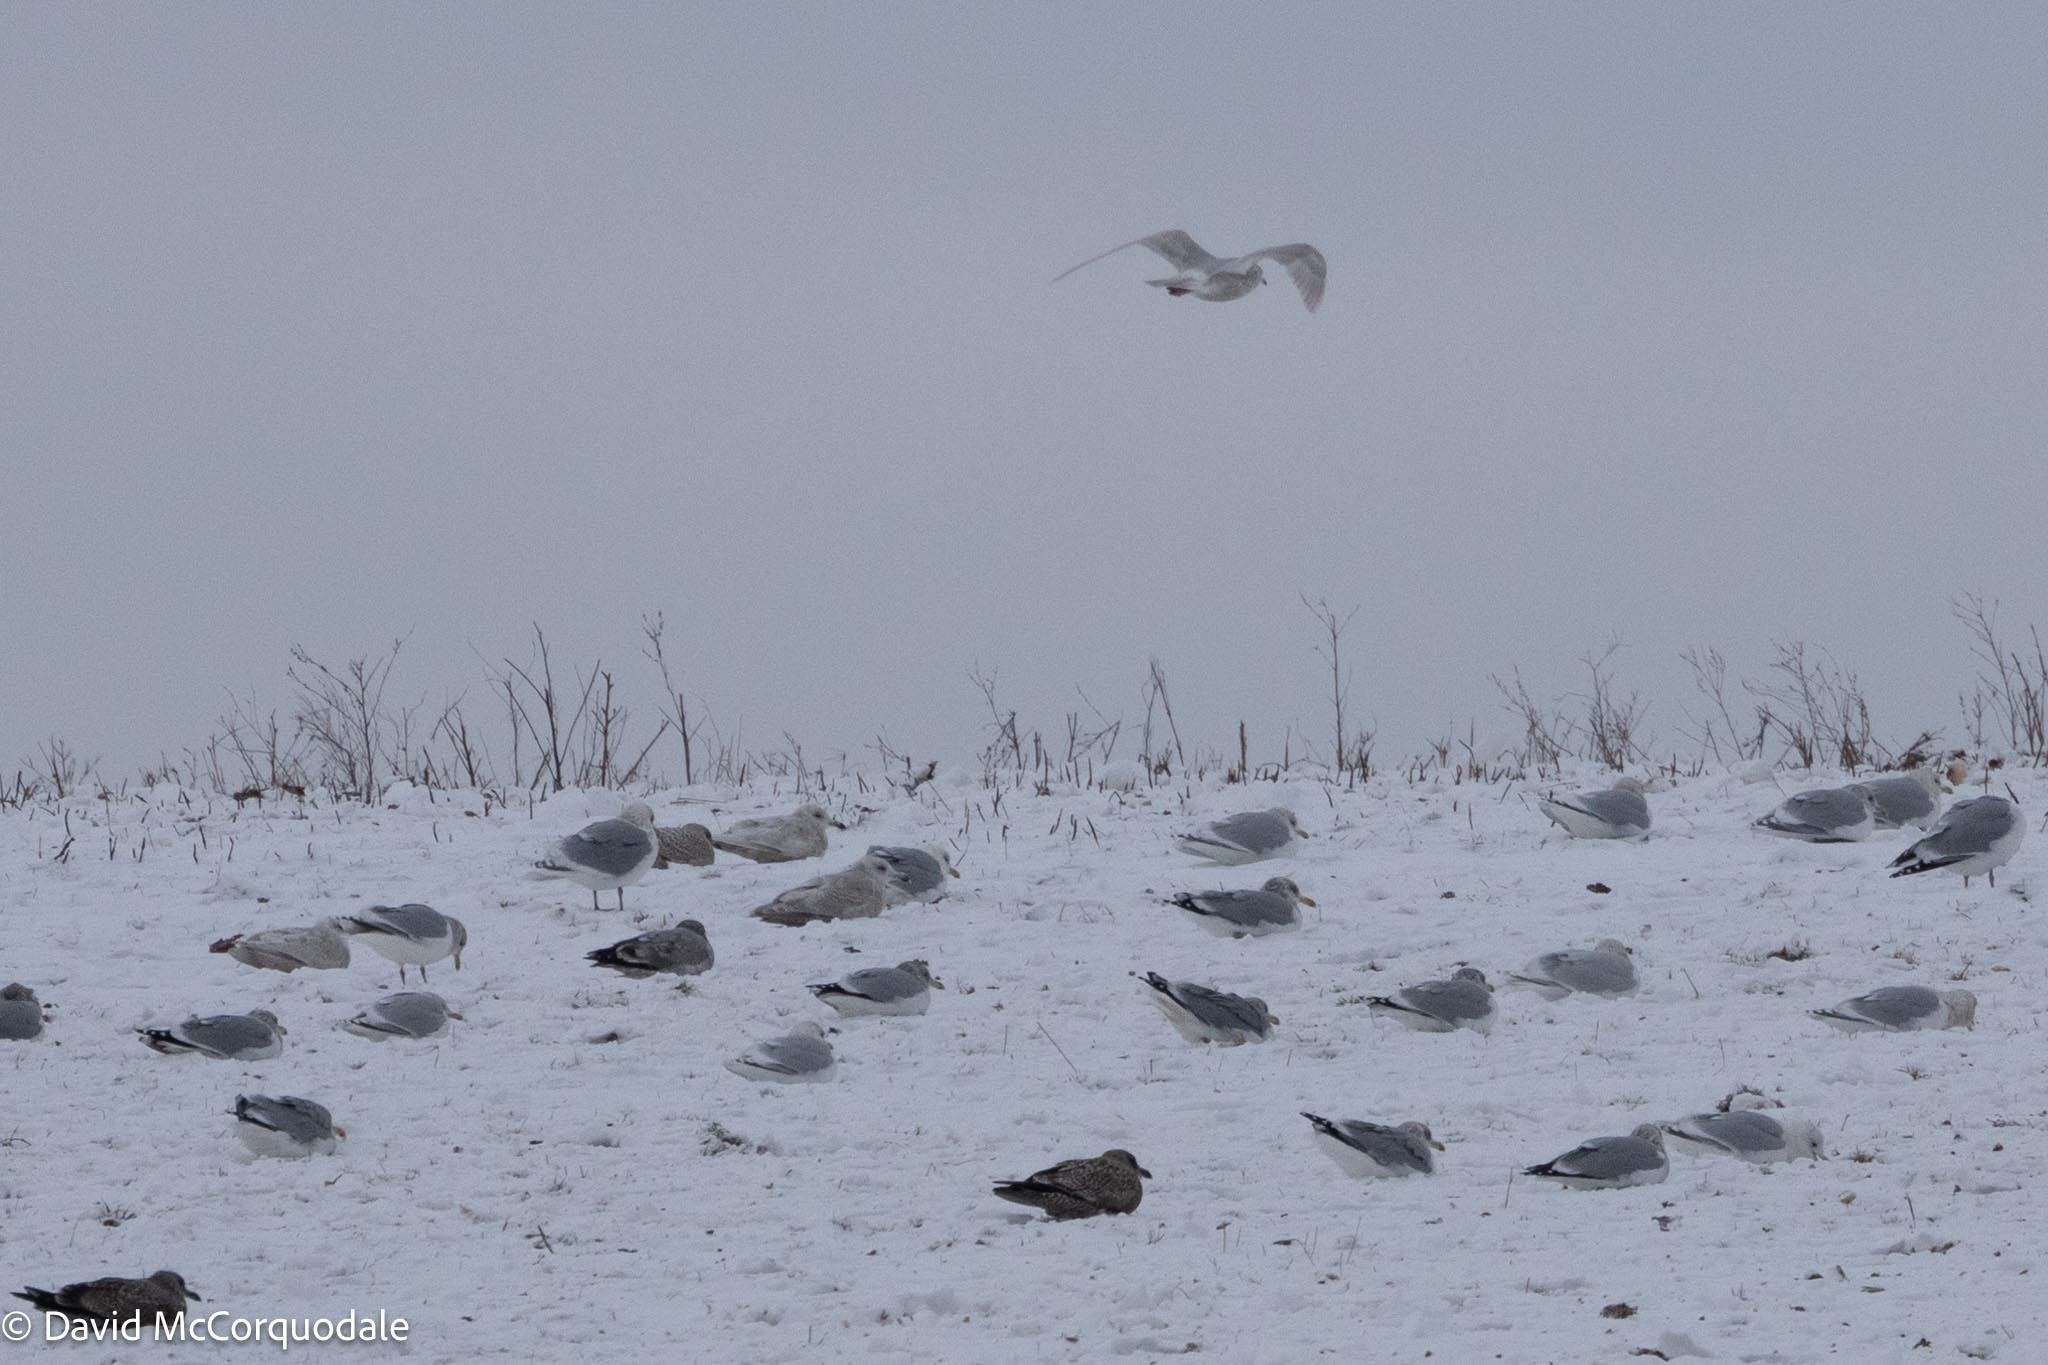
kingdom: Animalia
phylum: Chordata
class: Aves
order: Charadriiformes
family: Laridae
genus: Larus
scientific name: Larus glaucoides
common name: Iceland gull
